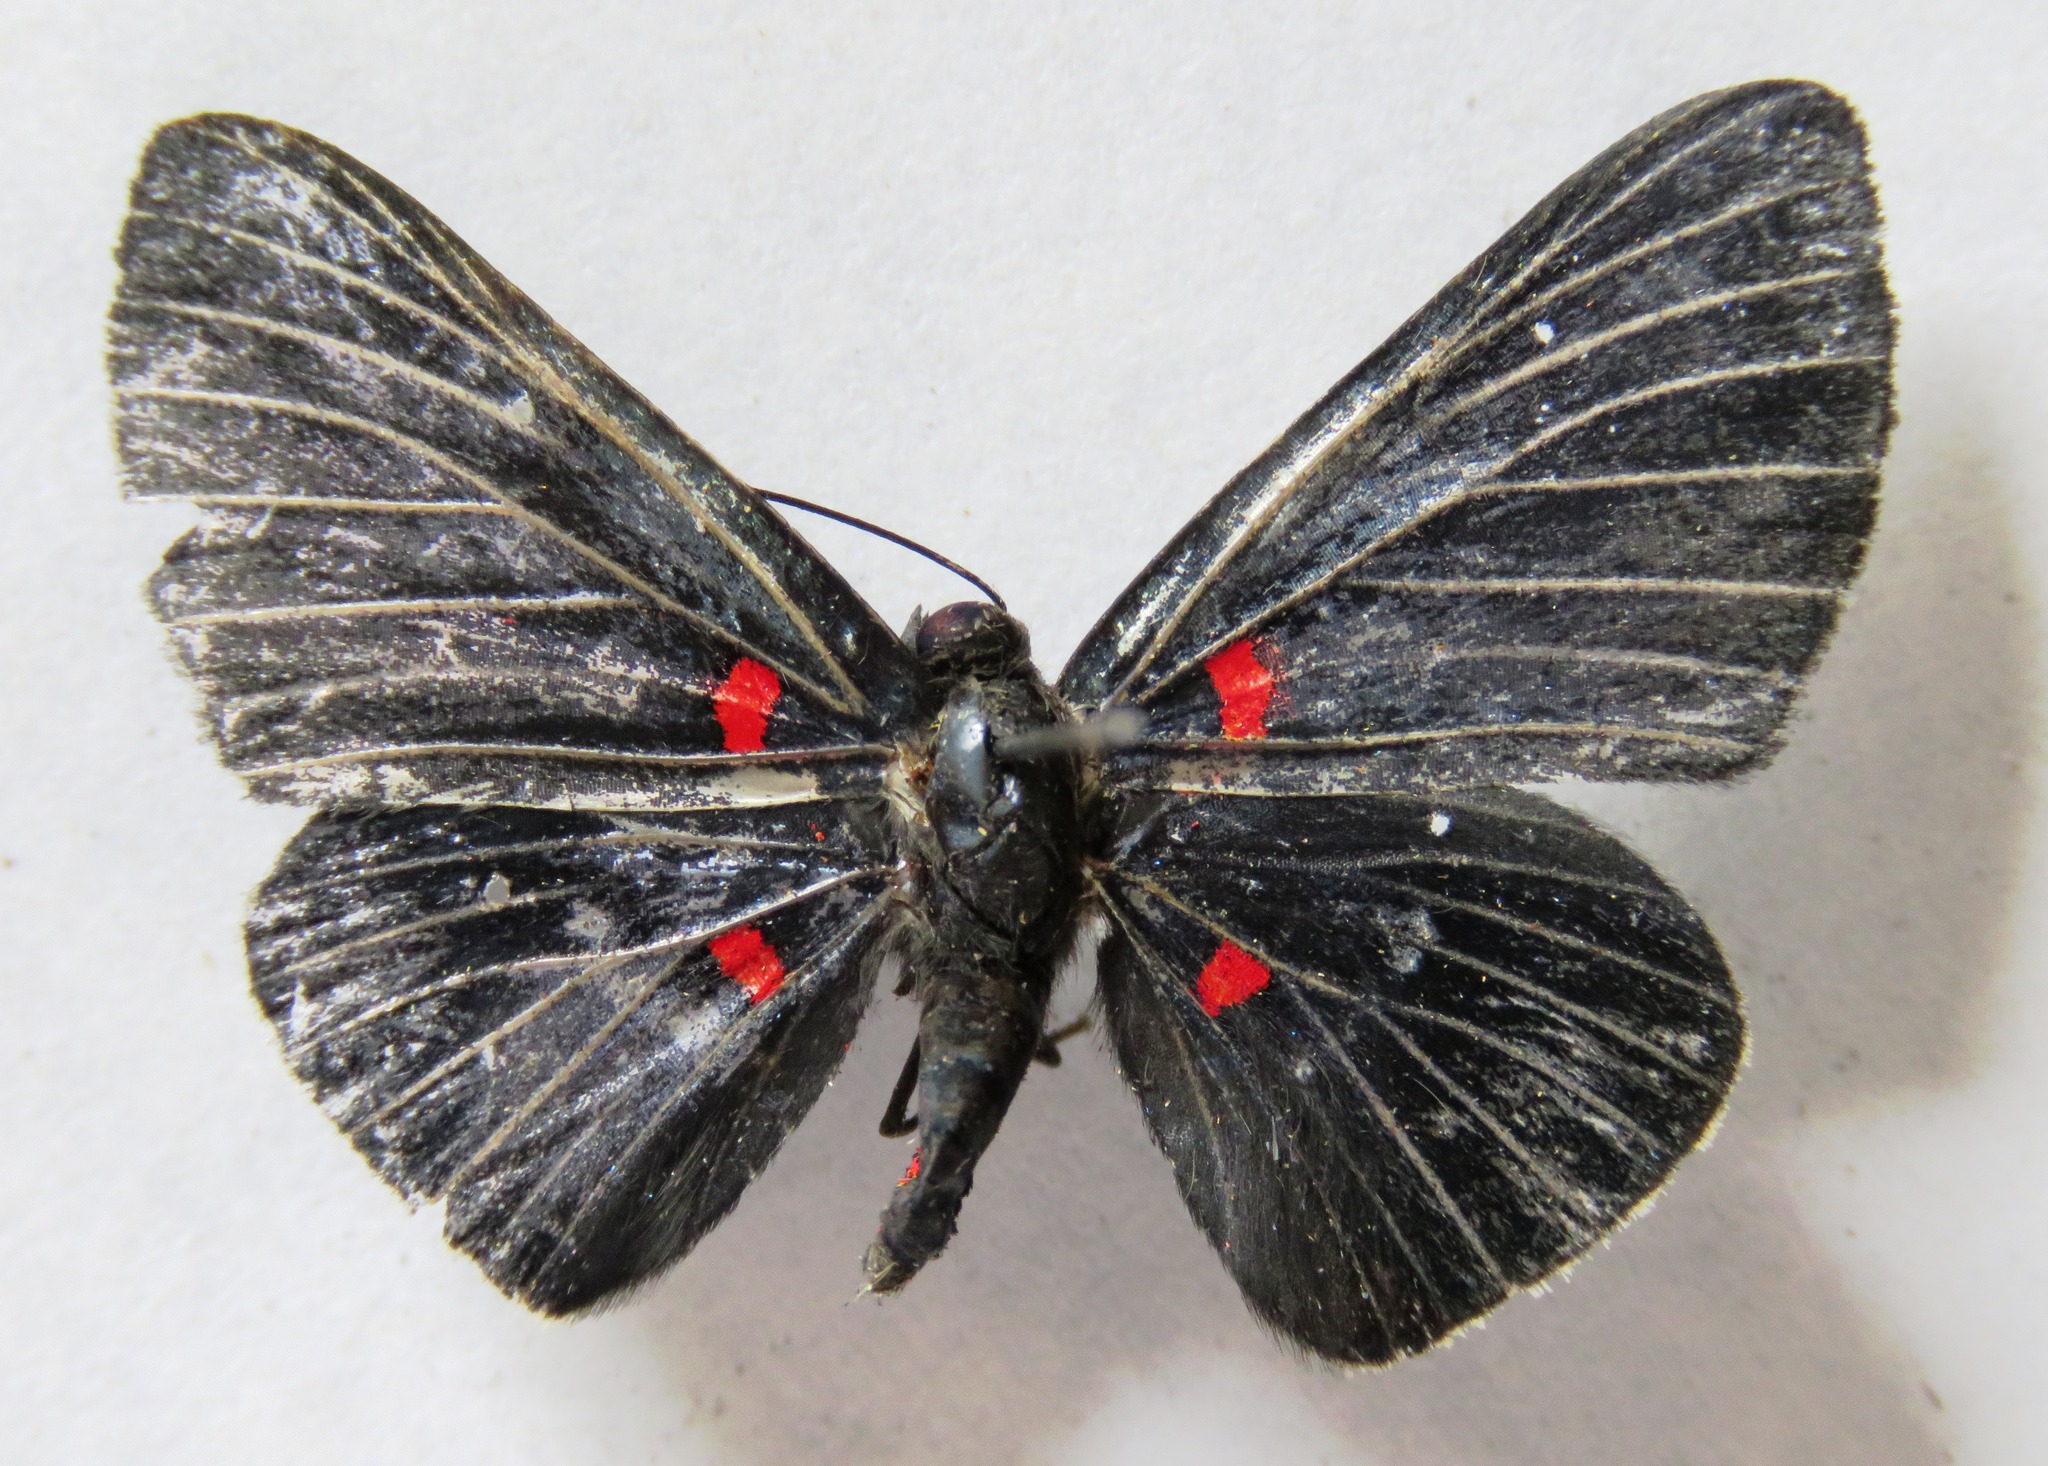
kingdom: Animalia
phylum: Arthropoda
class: Insecta
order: Lepidoptera
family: Lycaenidae
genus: Melanis
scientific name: Melanis pixe
